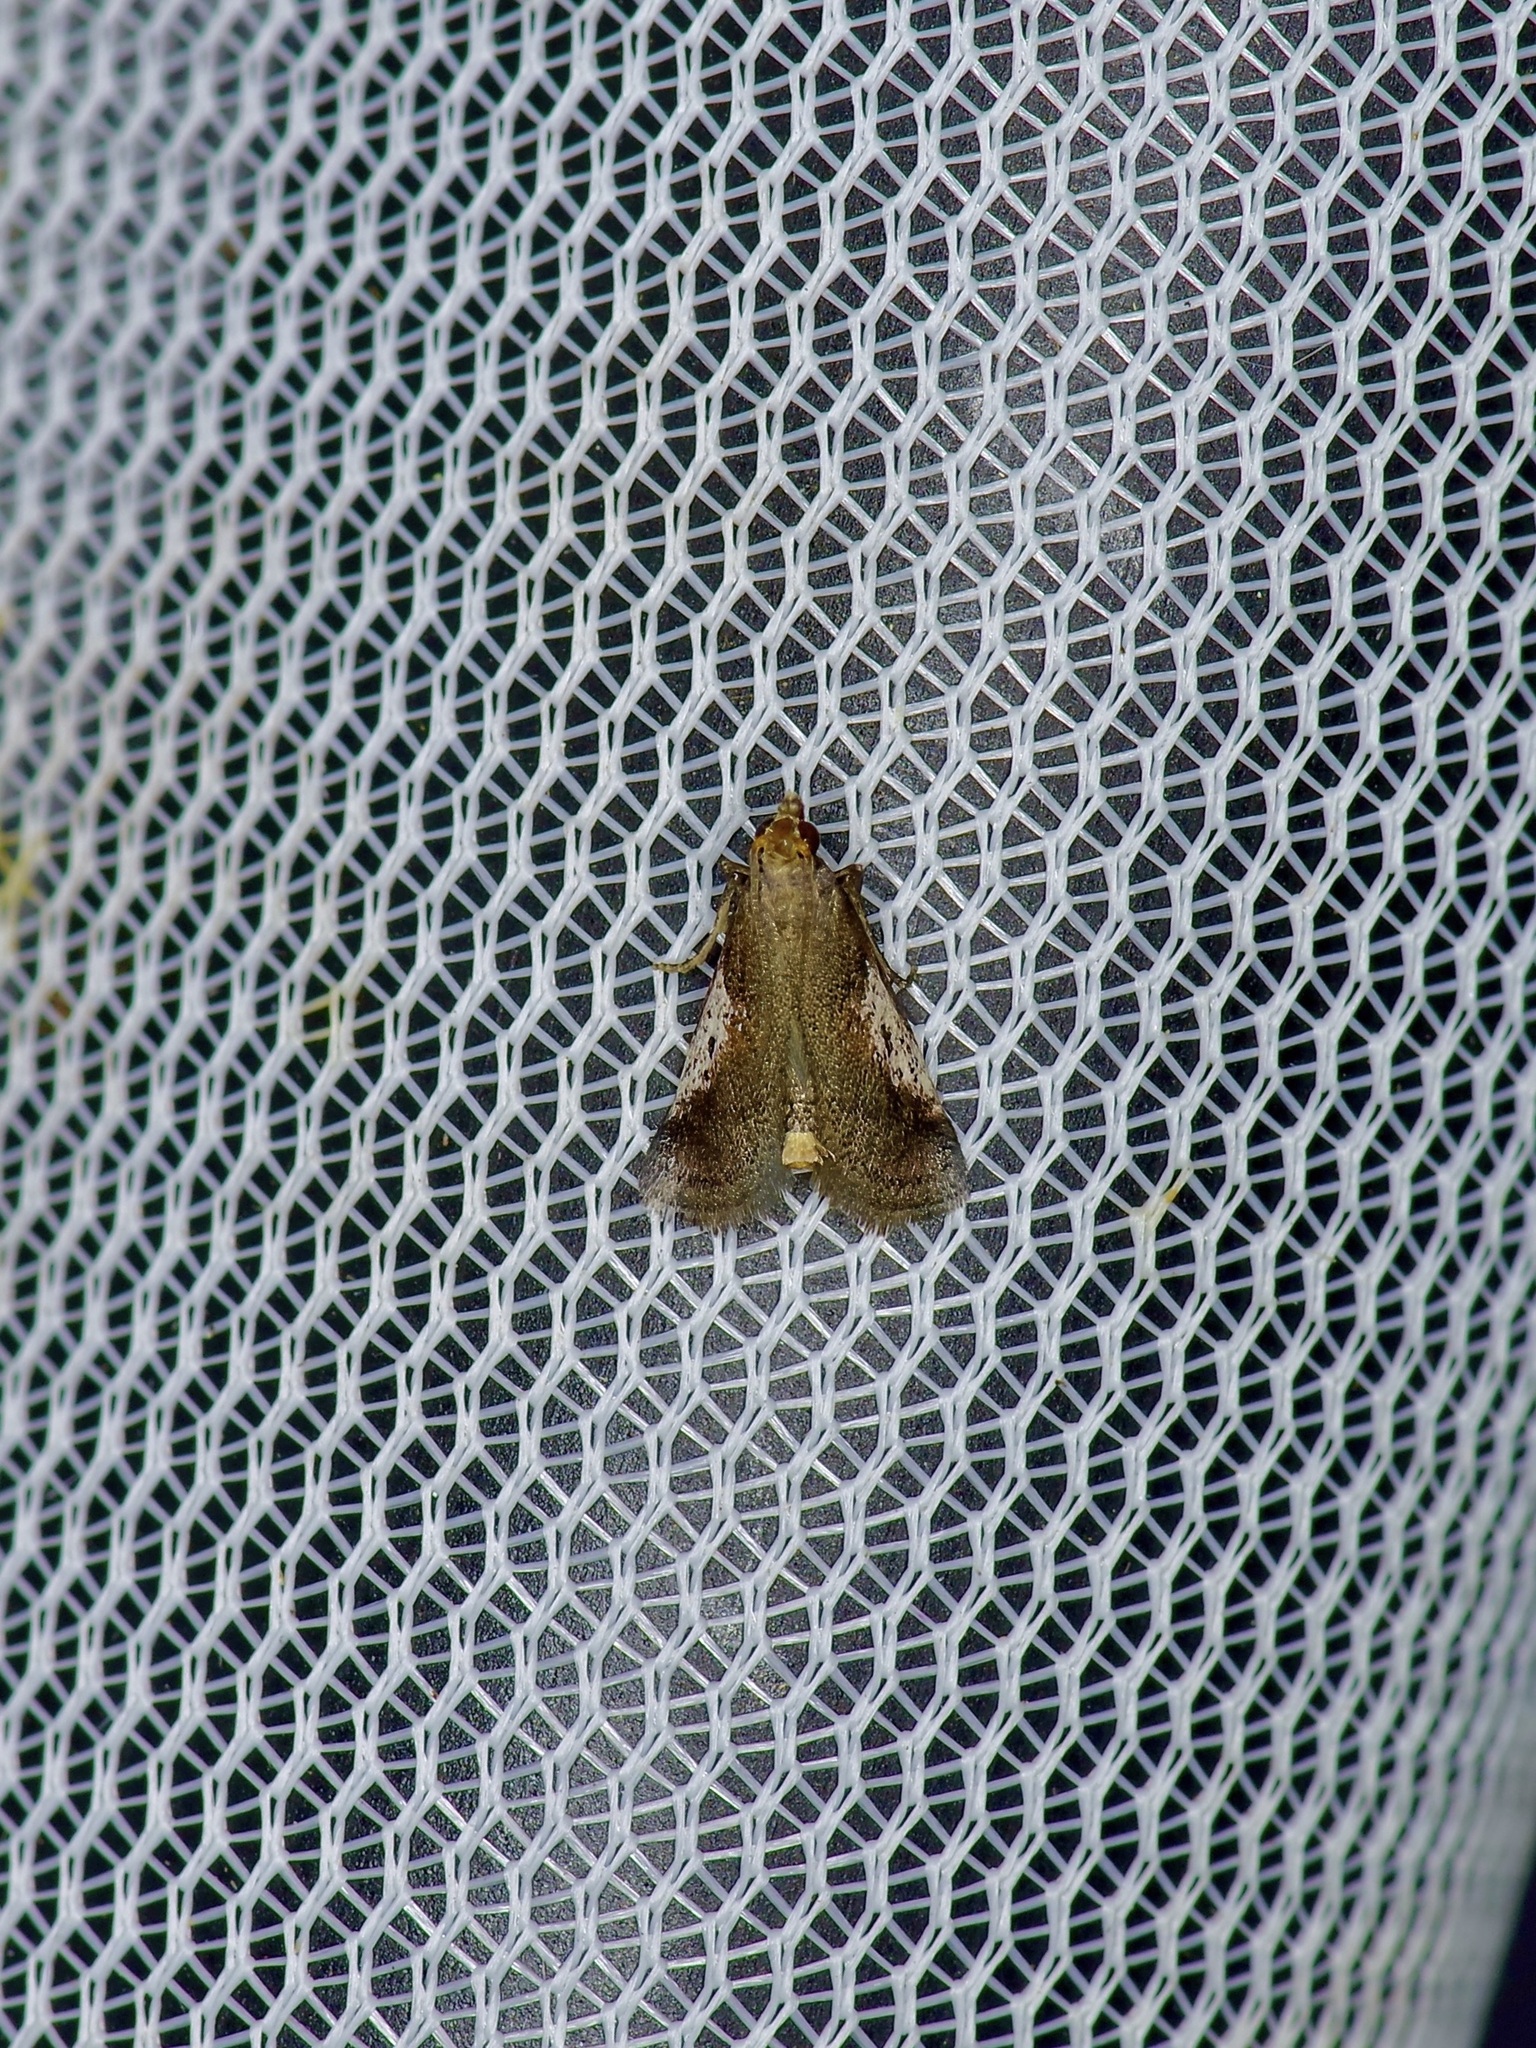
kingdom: Animalia
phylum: Arthropoda
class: Insecta
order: Lepidoptera
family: Pyralidae
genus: Alpheias
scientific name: Alpheias oculiferalis
